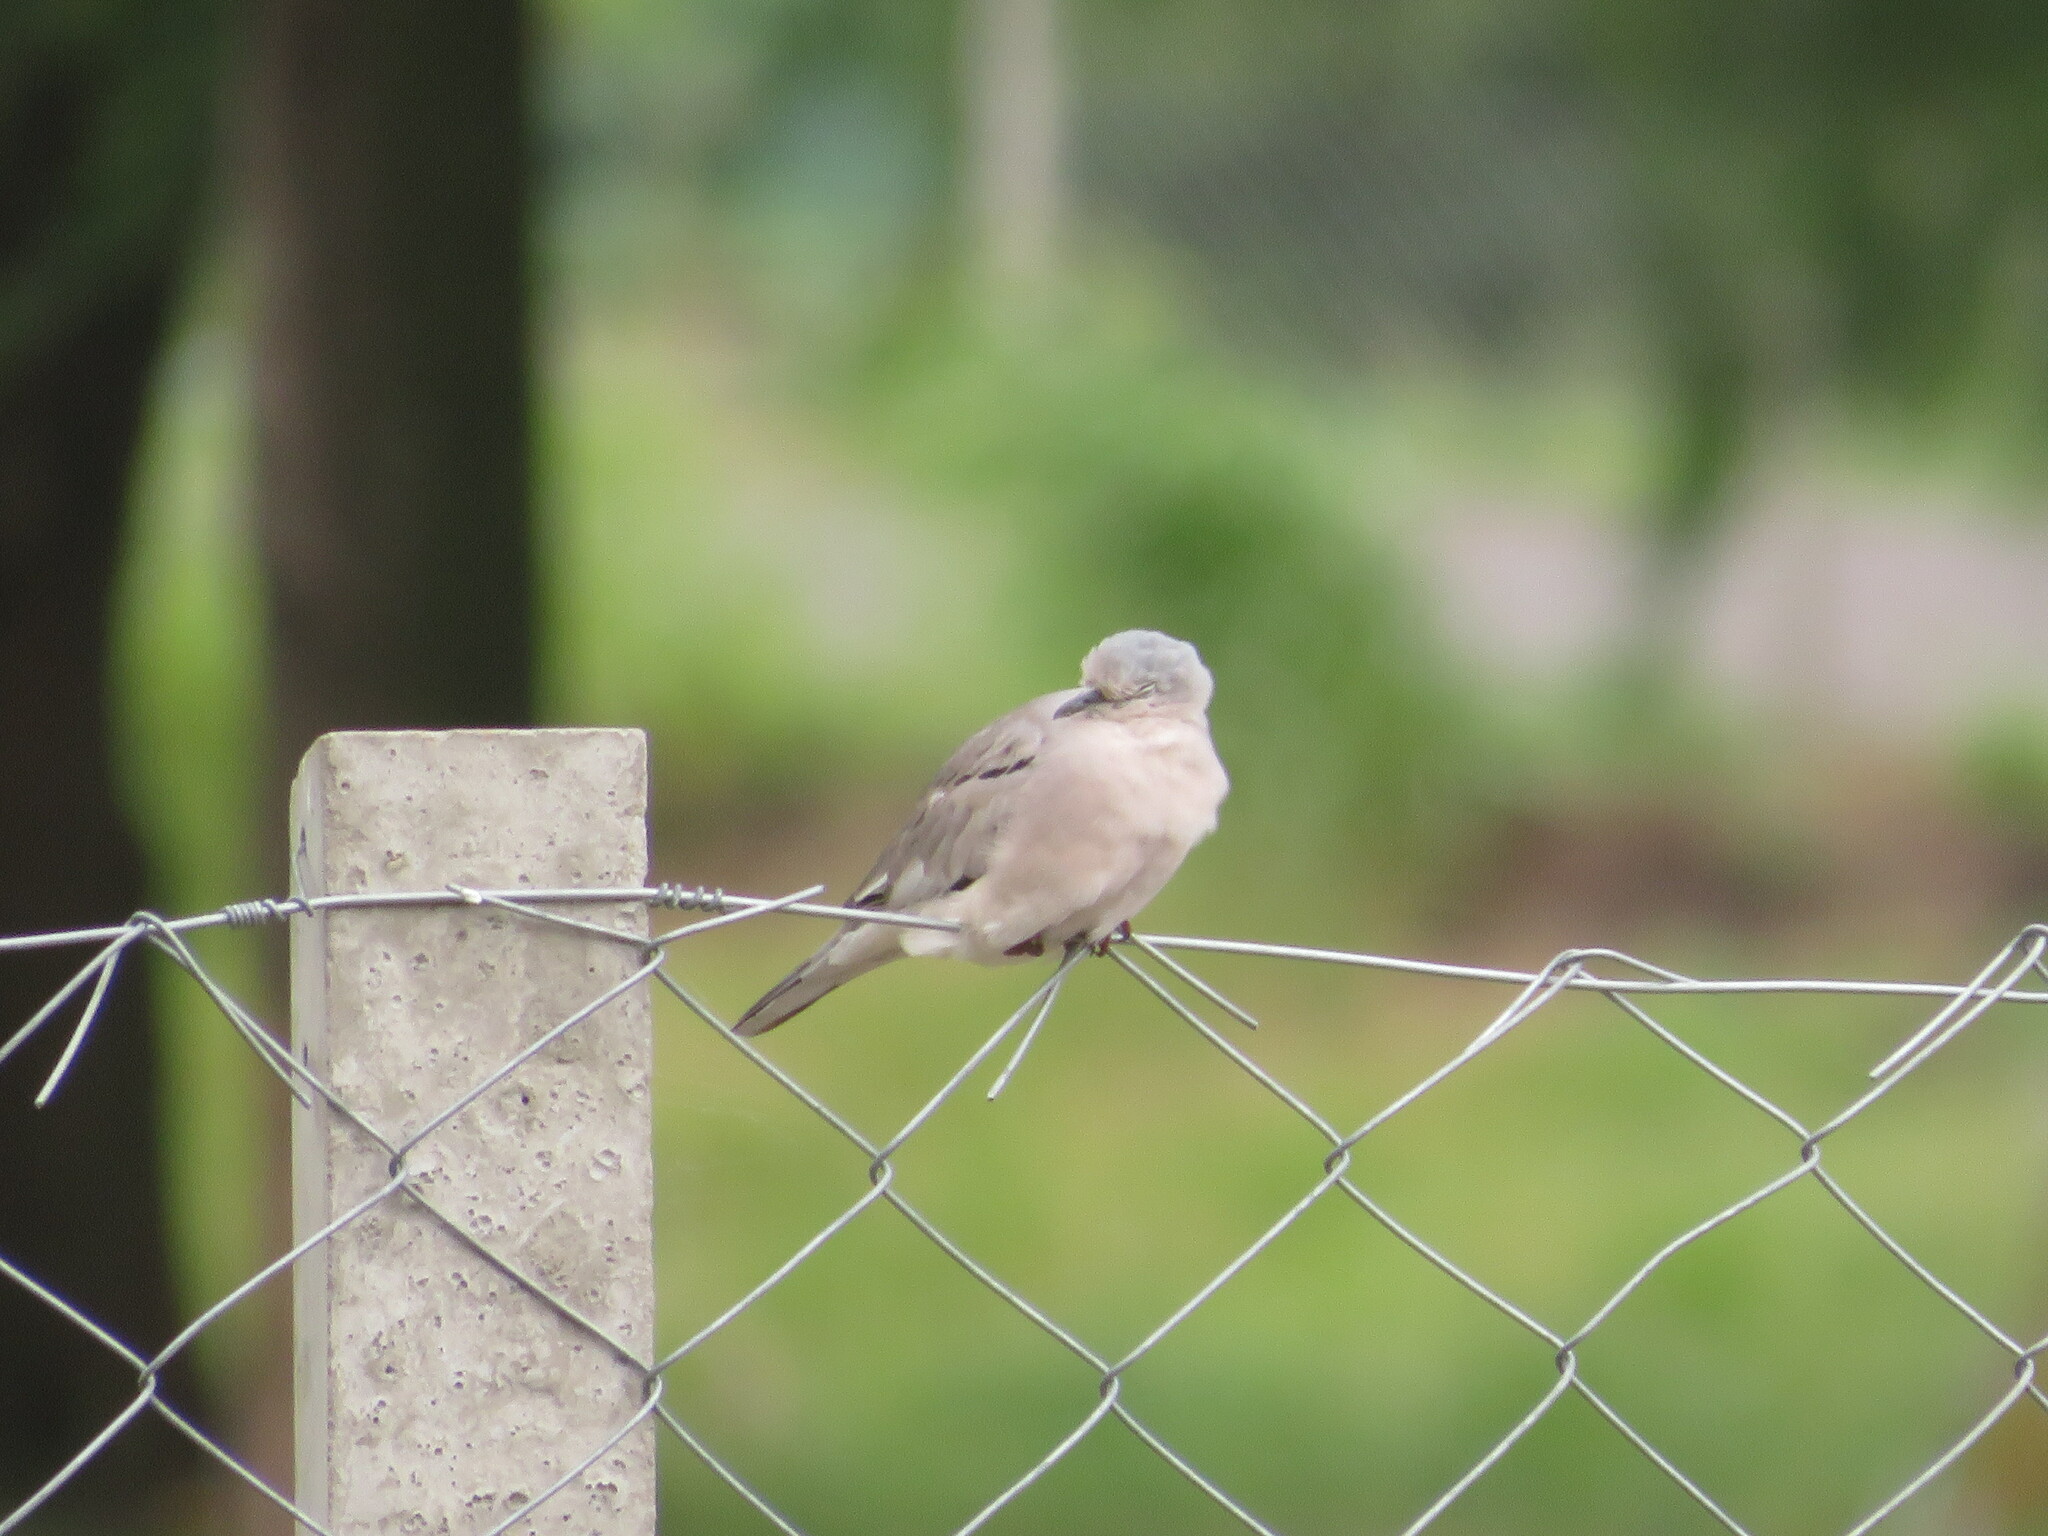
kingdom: Animalia
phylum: Chordata
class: Aves
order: Columbiformes
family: Columbidae
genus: Columbina
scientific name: Columbina picui
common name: Picui ground dove
